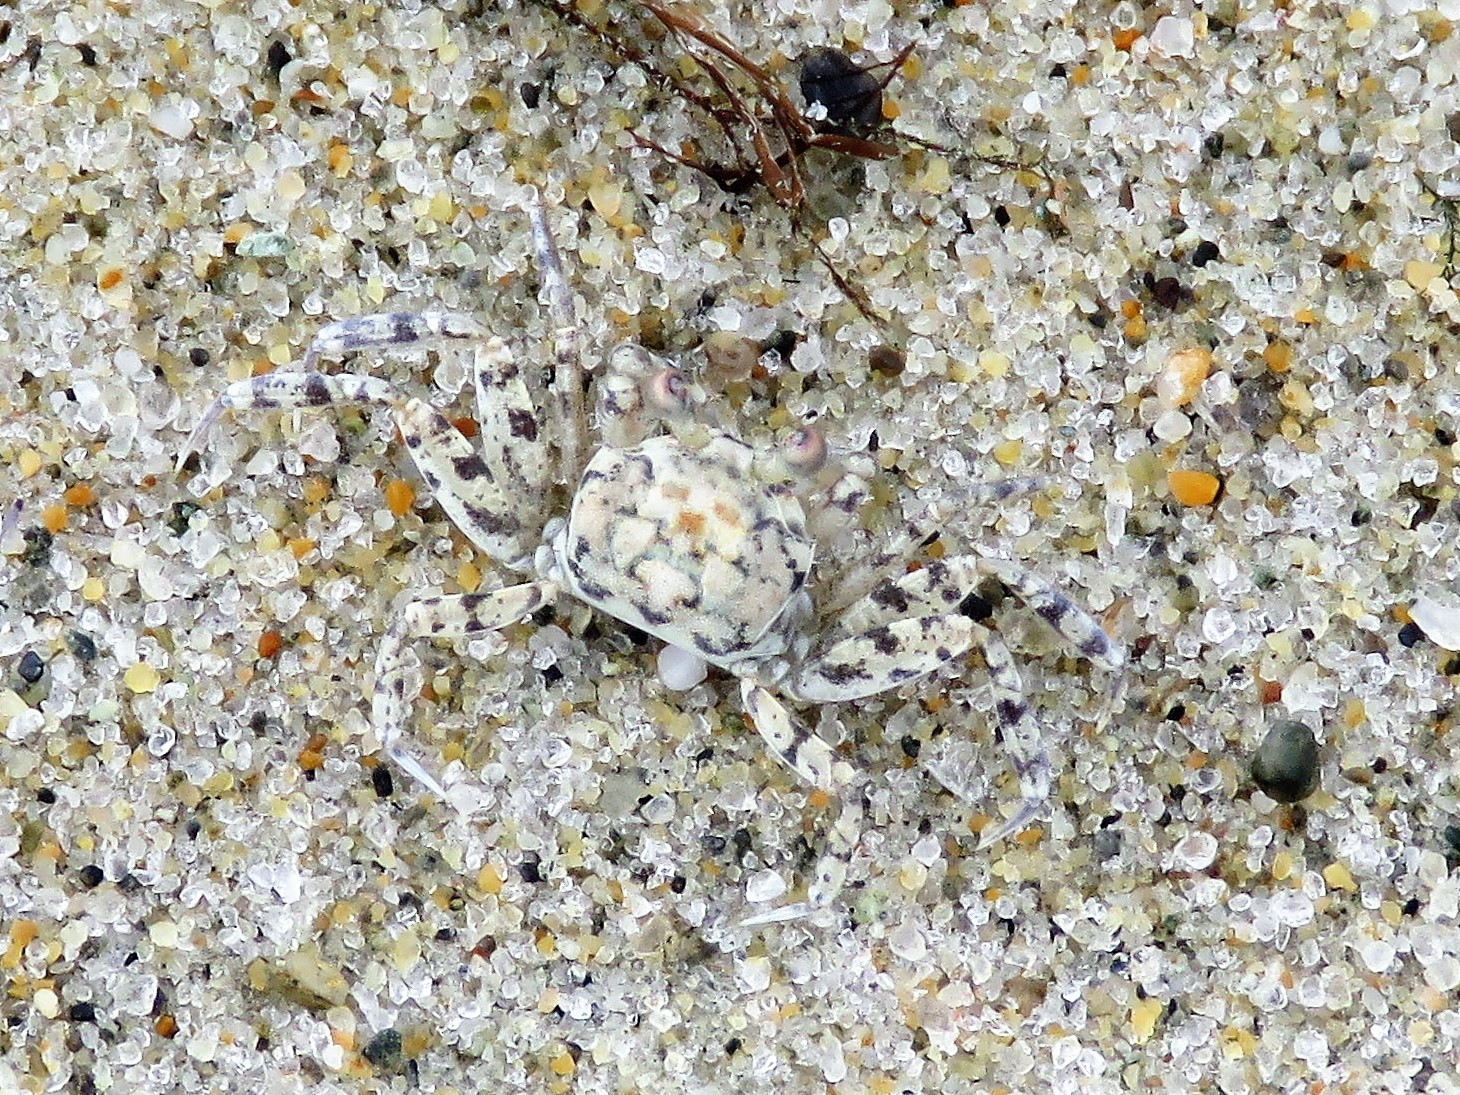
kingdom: Animalia
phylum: Arthropoda
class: Malacostraca
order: Decapoda
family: Ocypodidae
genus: Ocypode
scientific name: Ocypode quadrata
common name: Ghost crab
